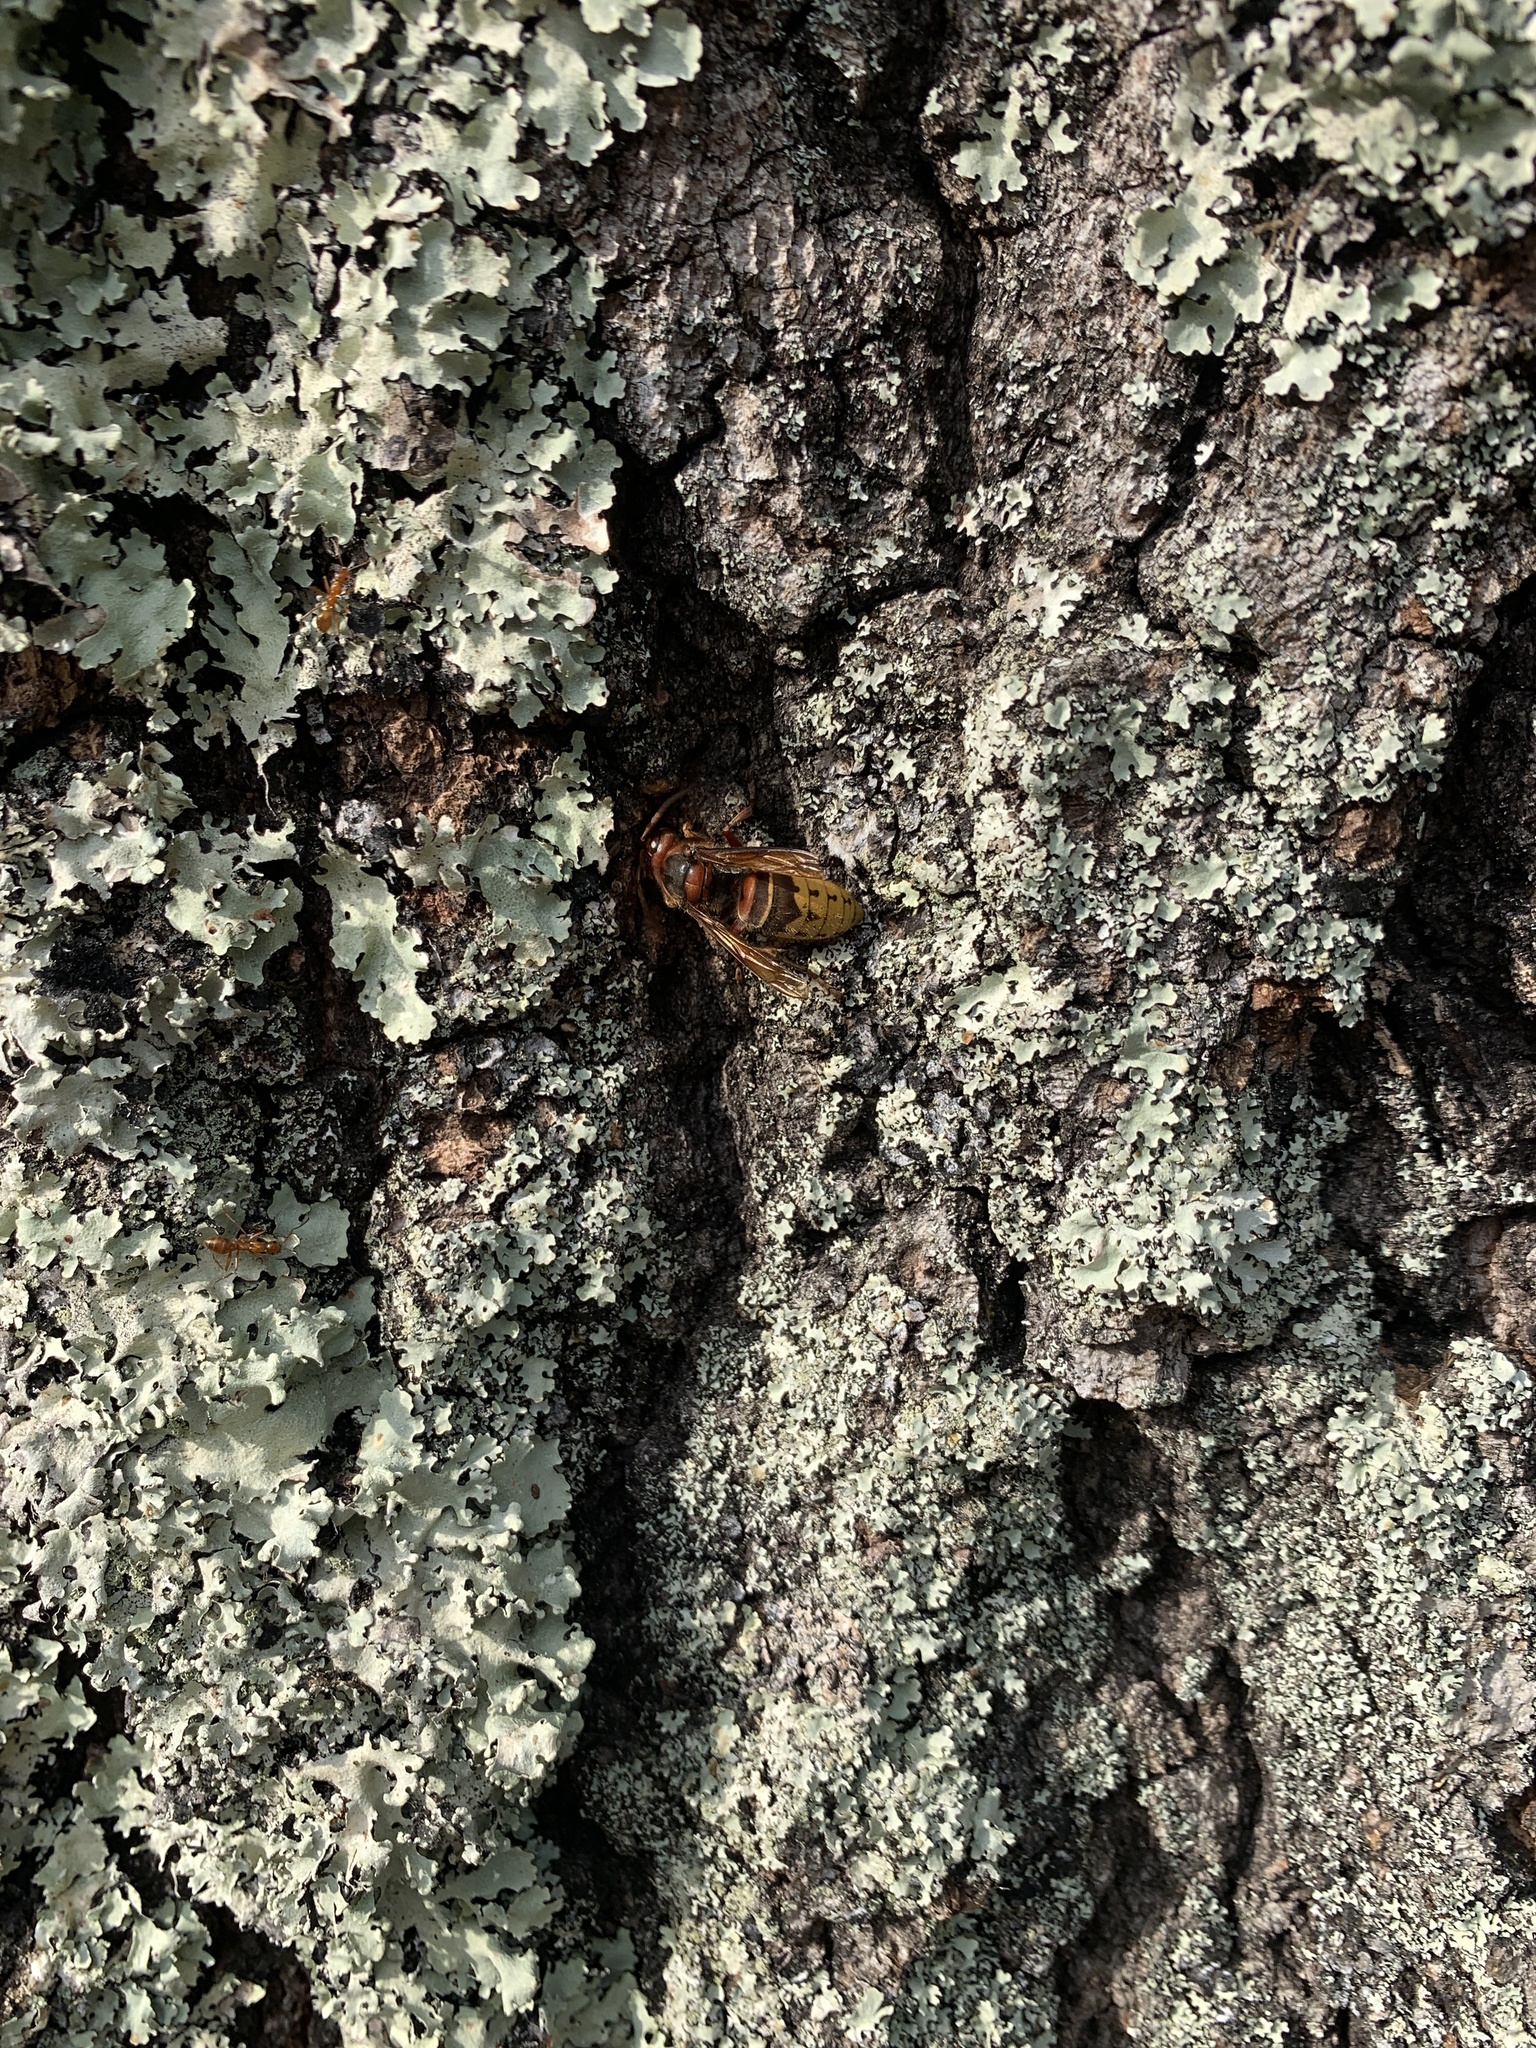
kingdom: Animalia
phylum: Arthropoda
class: Insecta
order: Hymenoptera
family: Vespidae
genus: Vespa
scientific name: Vespa crabro
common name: Hornet
